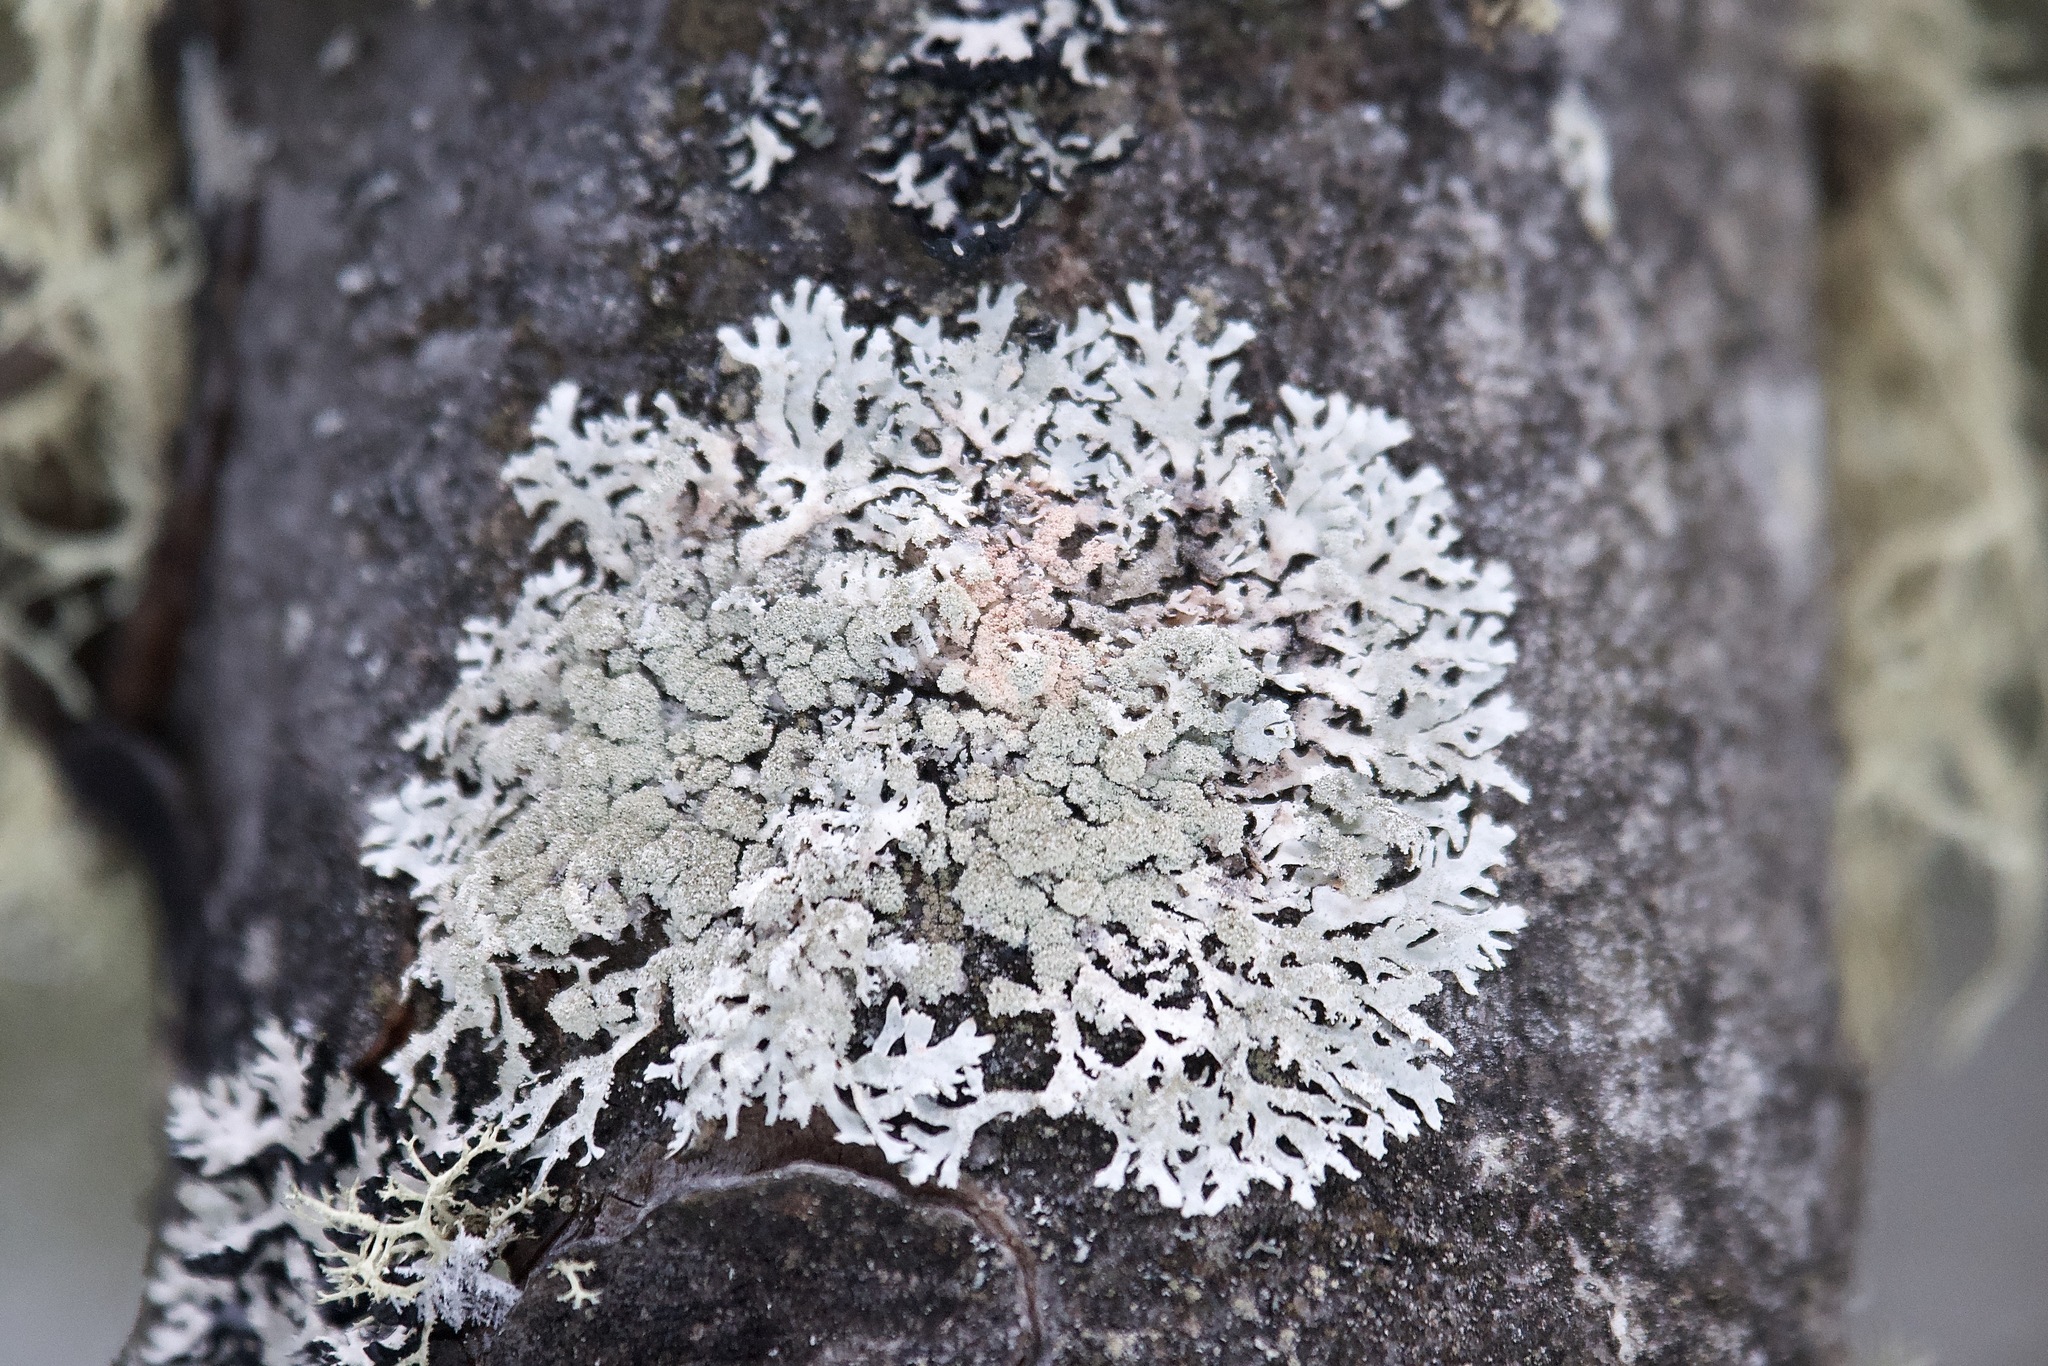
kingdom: Fungi
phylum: Ascomycota
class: Lecanoromycetes
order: Lecanorales
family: Parmeliaceae
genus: Imshaugia
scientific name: Imshaugia aleurites
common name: Salted starburst lichen
